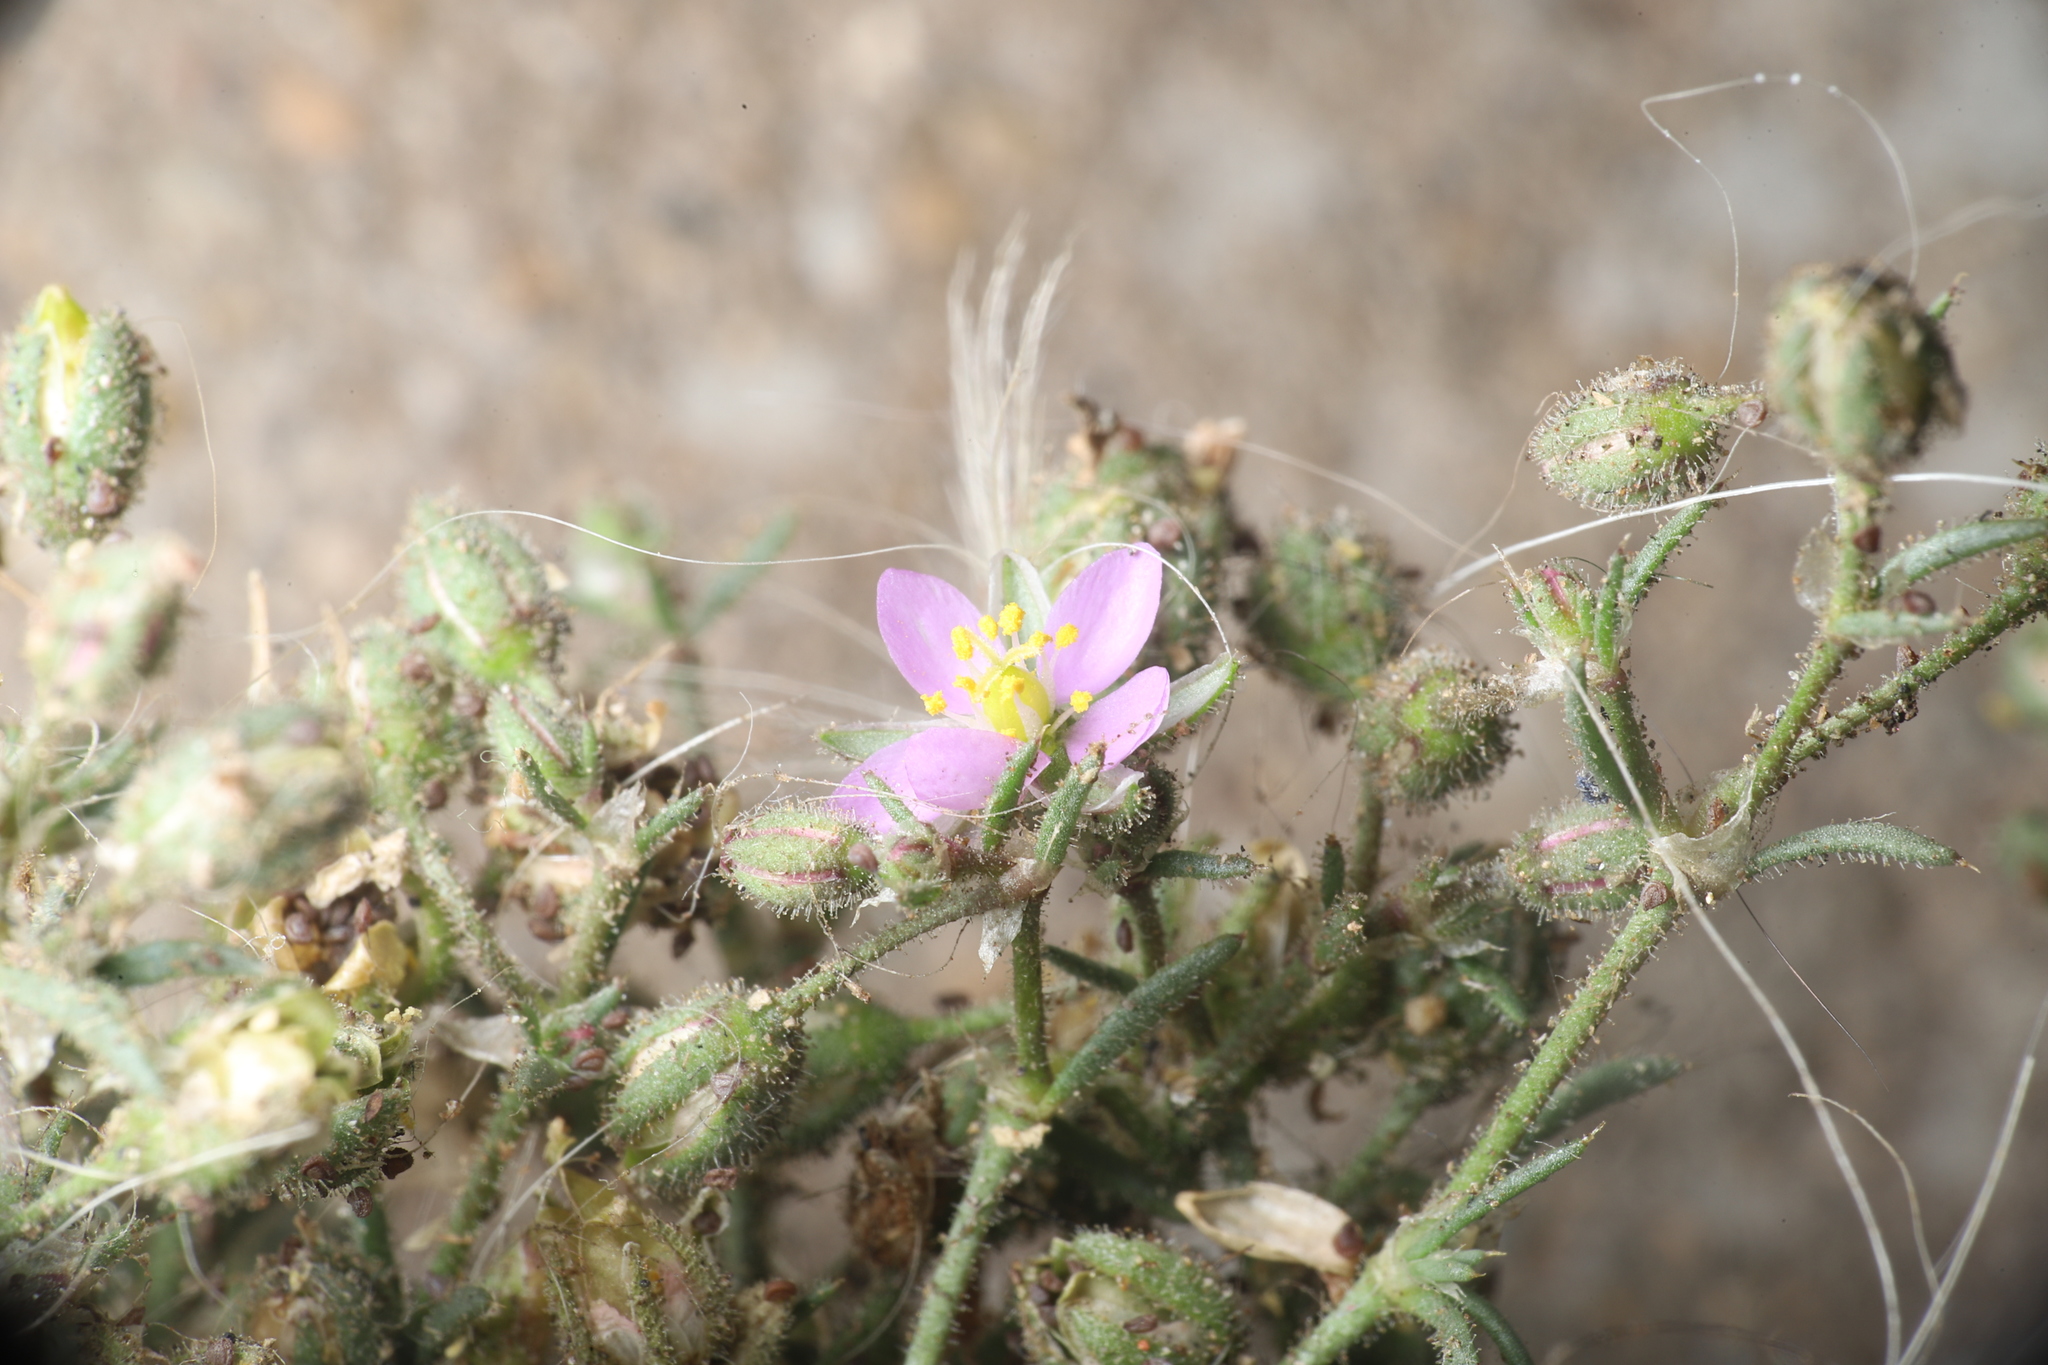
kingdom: Plantae
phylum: Tracheophyta
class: Magnoliopsida
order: Caryophyllales
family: Caryophyllaceae
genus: Spergularia
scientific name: Spergularia villosa
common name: Hairy sandspurry
